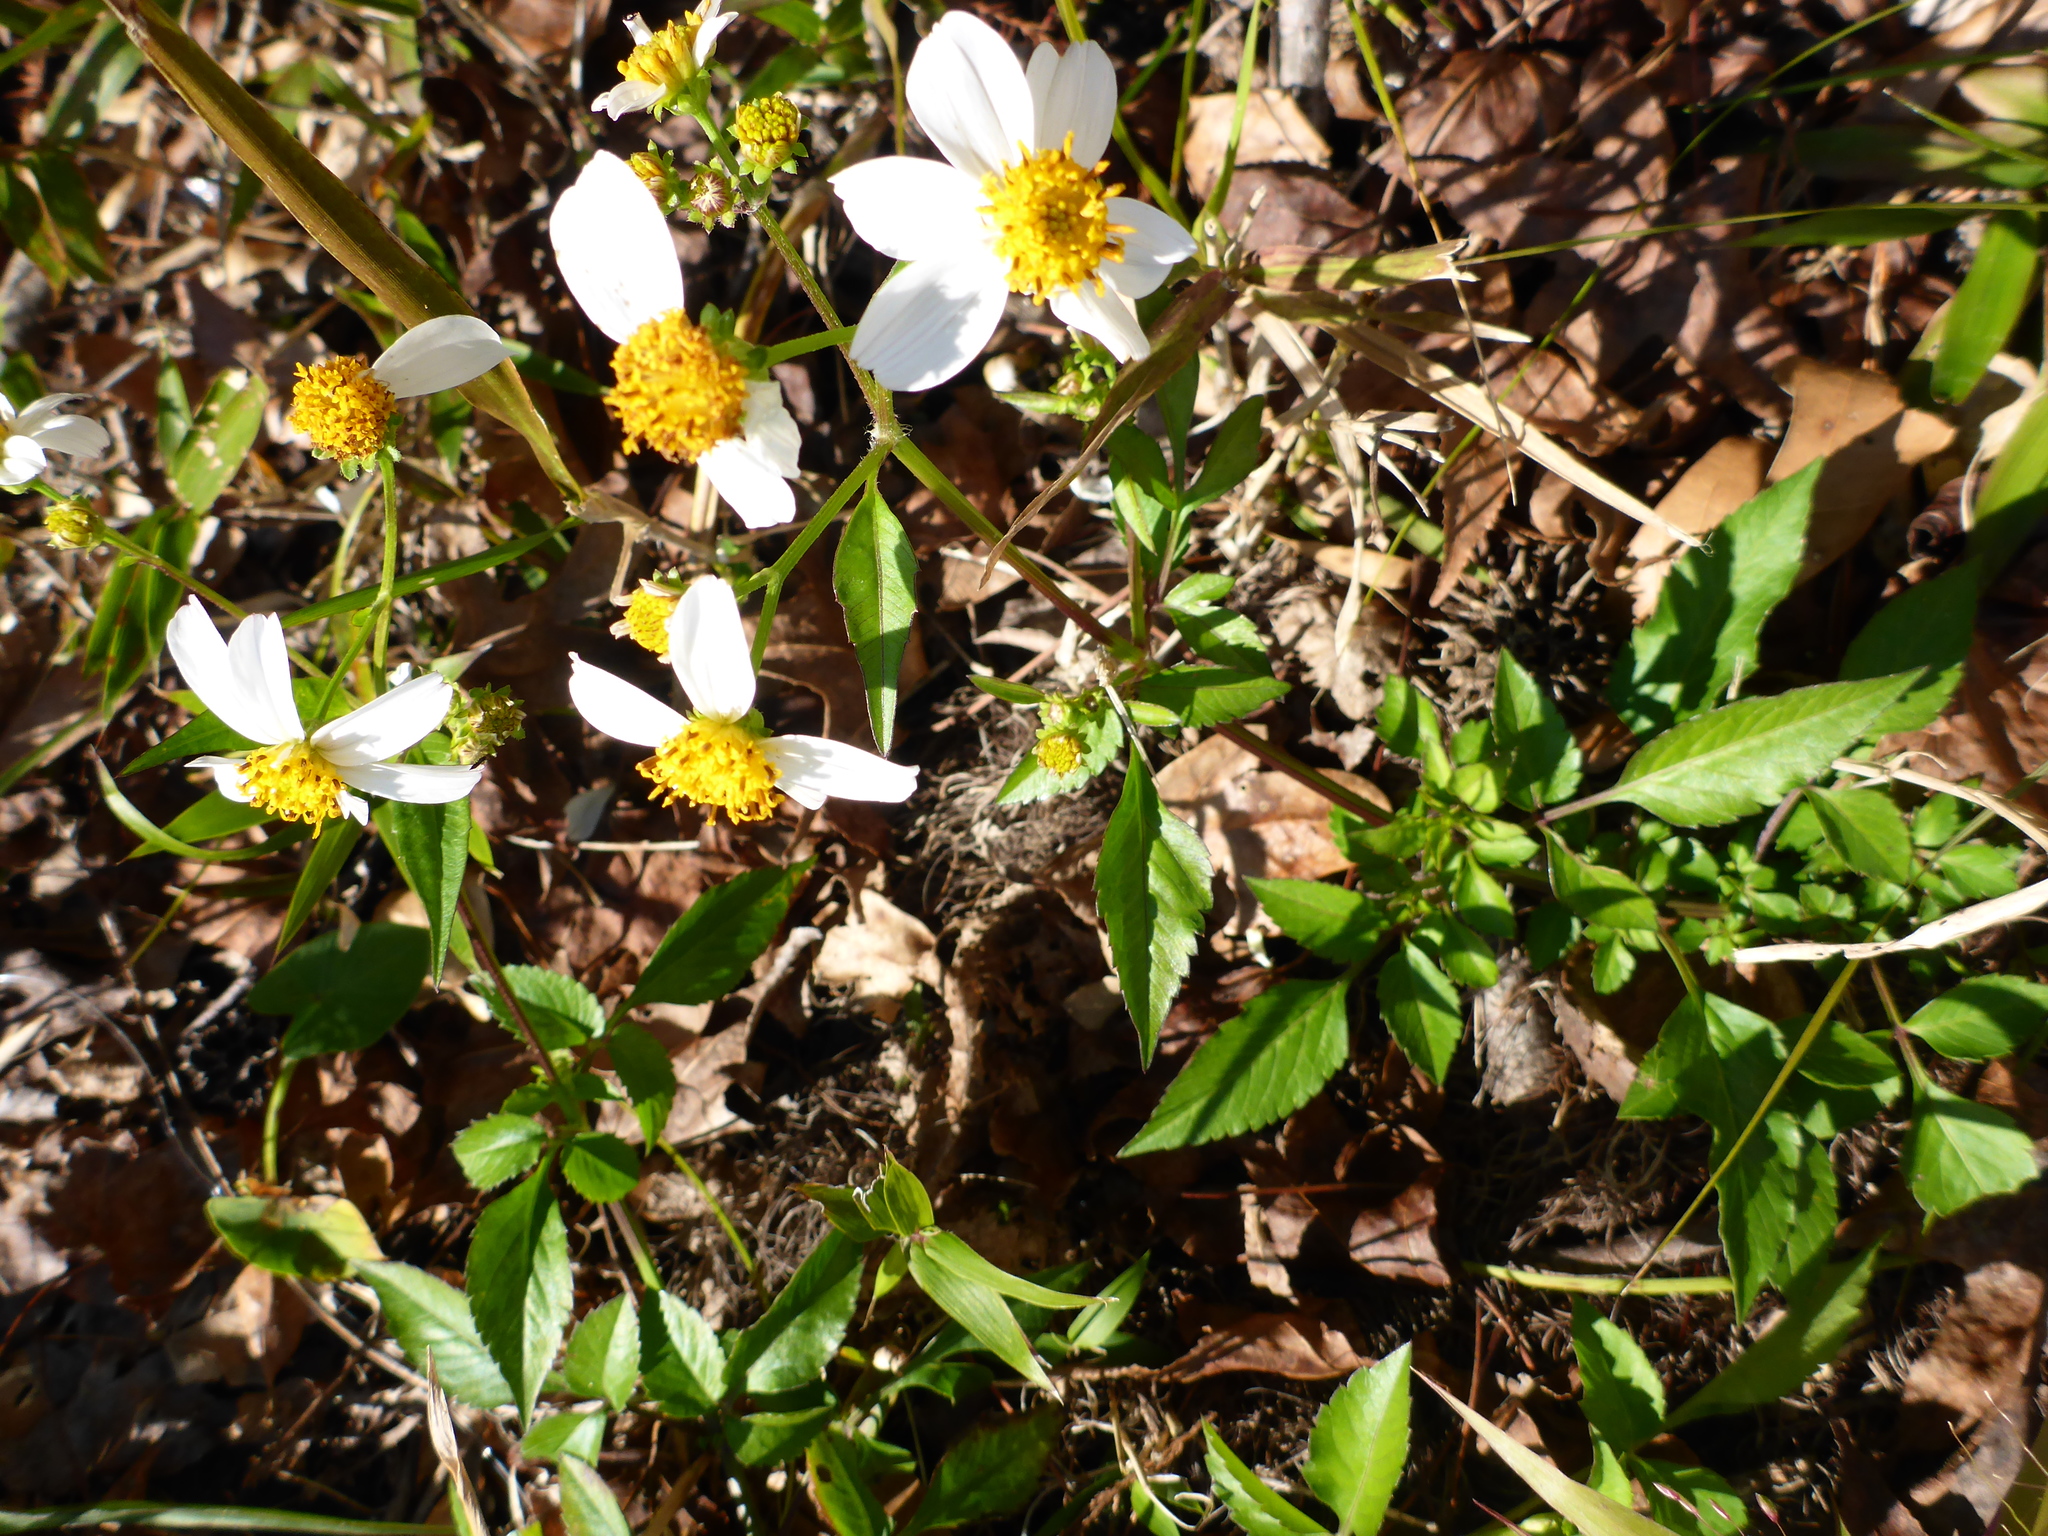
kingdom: Plantae
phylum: Tracheophyta
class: Magnoliopsida
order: Asterales
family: Asteraceae
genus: Bidens
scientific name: Bidens alba
